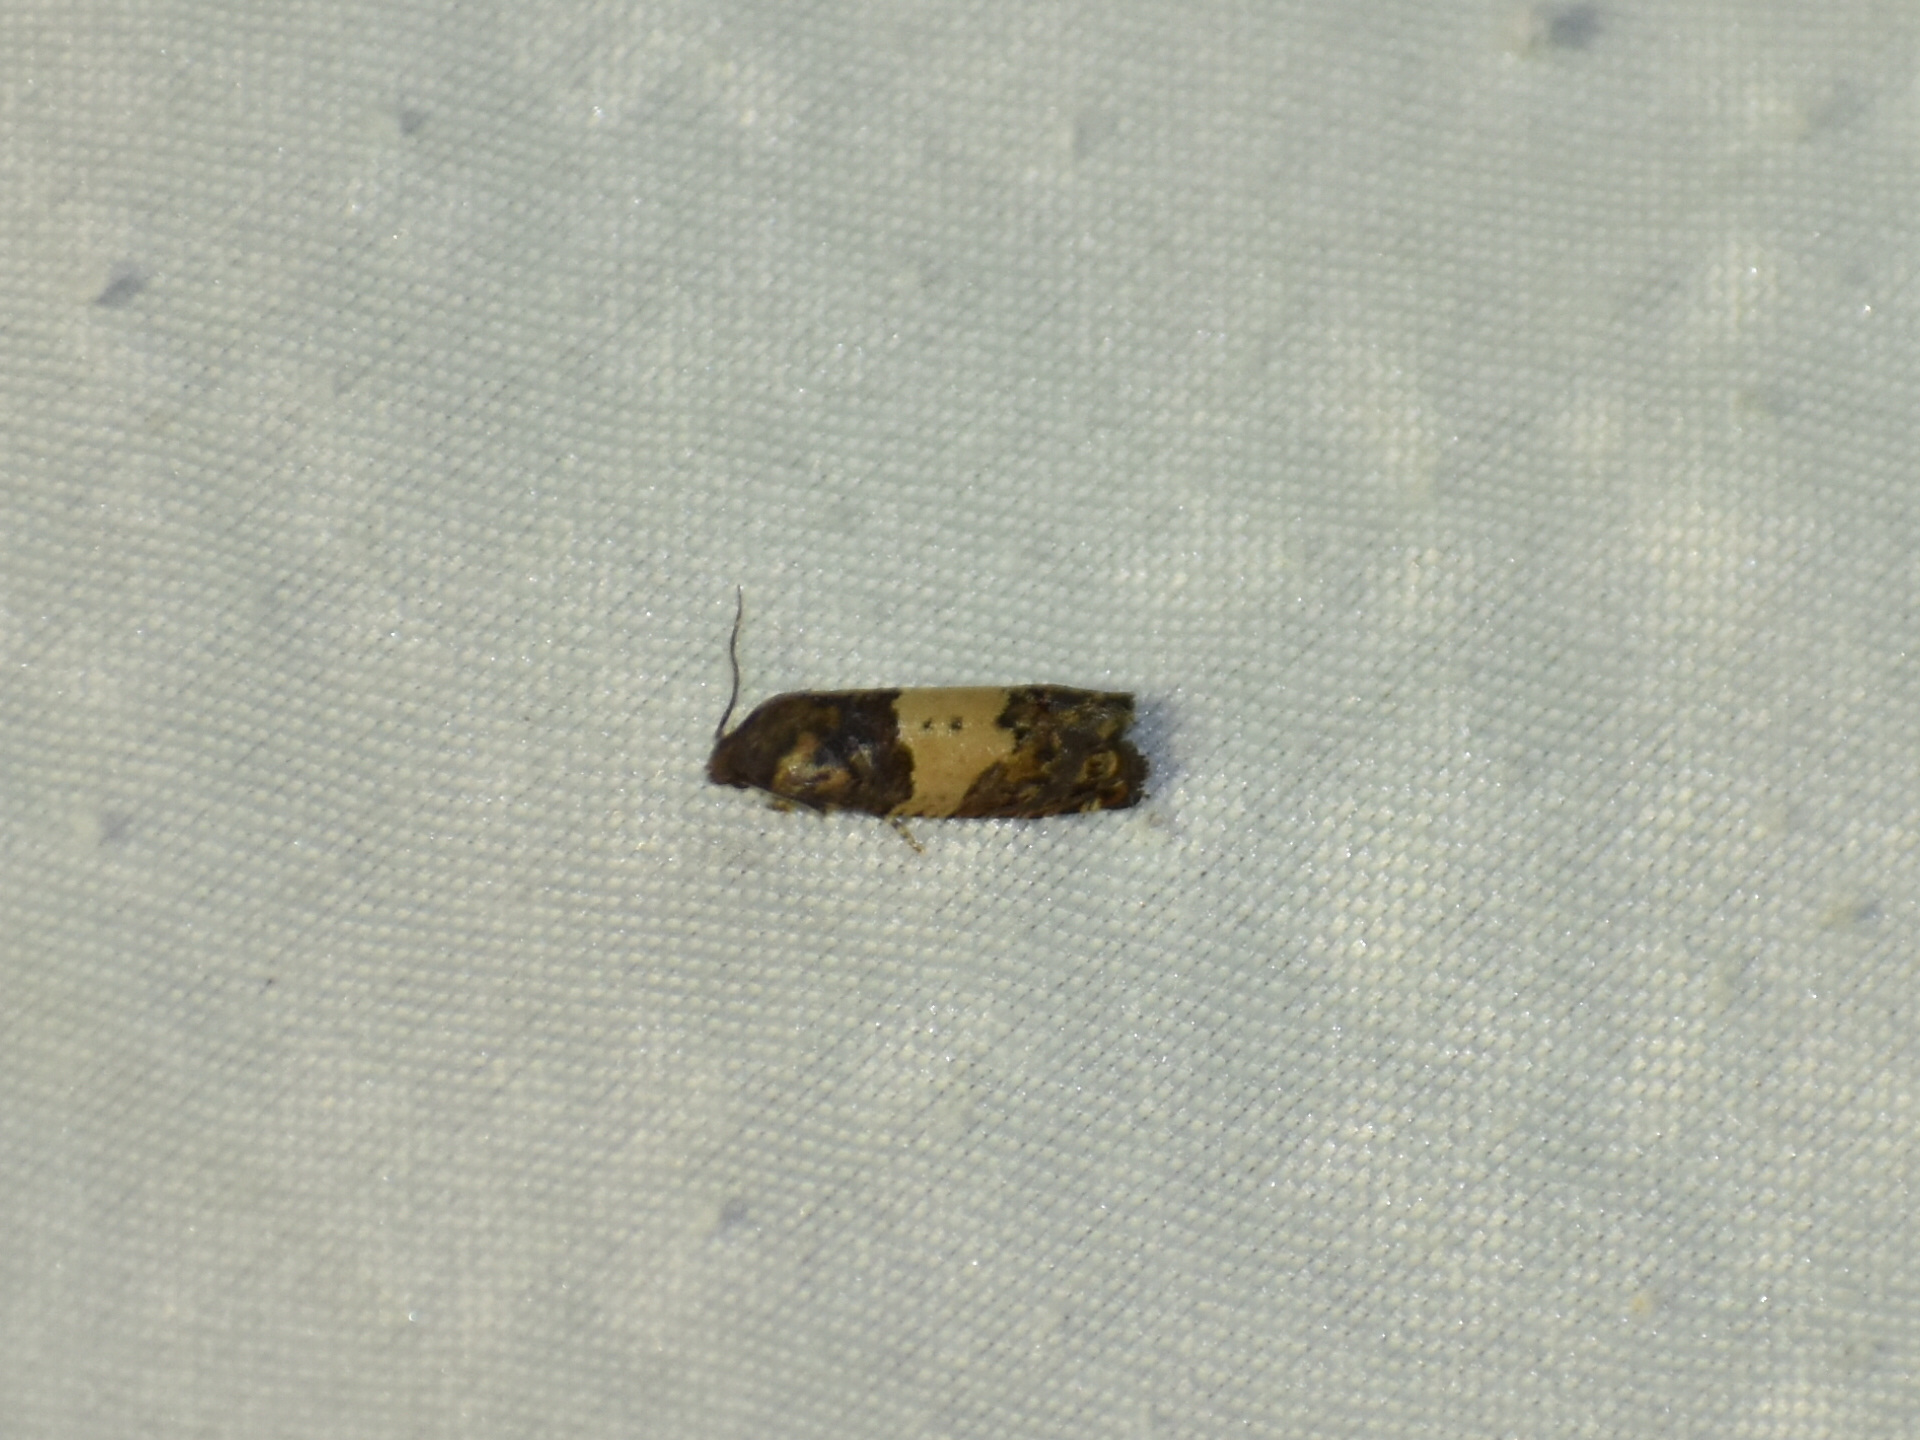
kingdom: Animalia
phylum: Arthropoda
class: Insecta
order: Lepidoptera
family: Tortricidae
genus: Epiblema
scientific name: Epiblema glenni
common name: Glenn's epiblema
